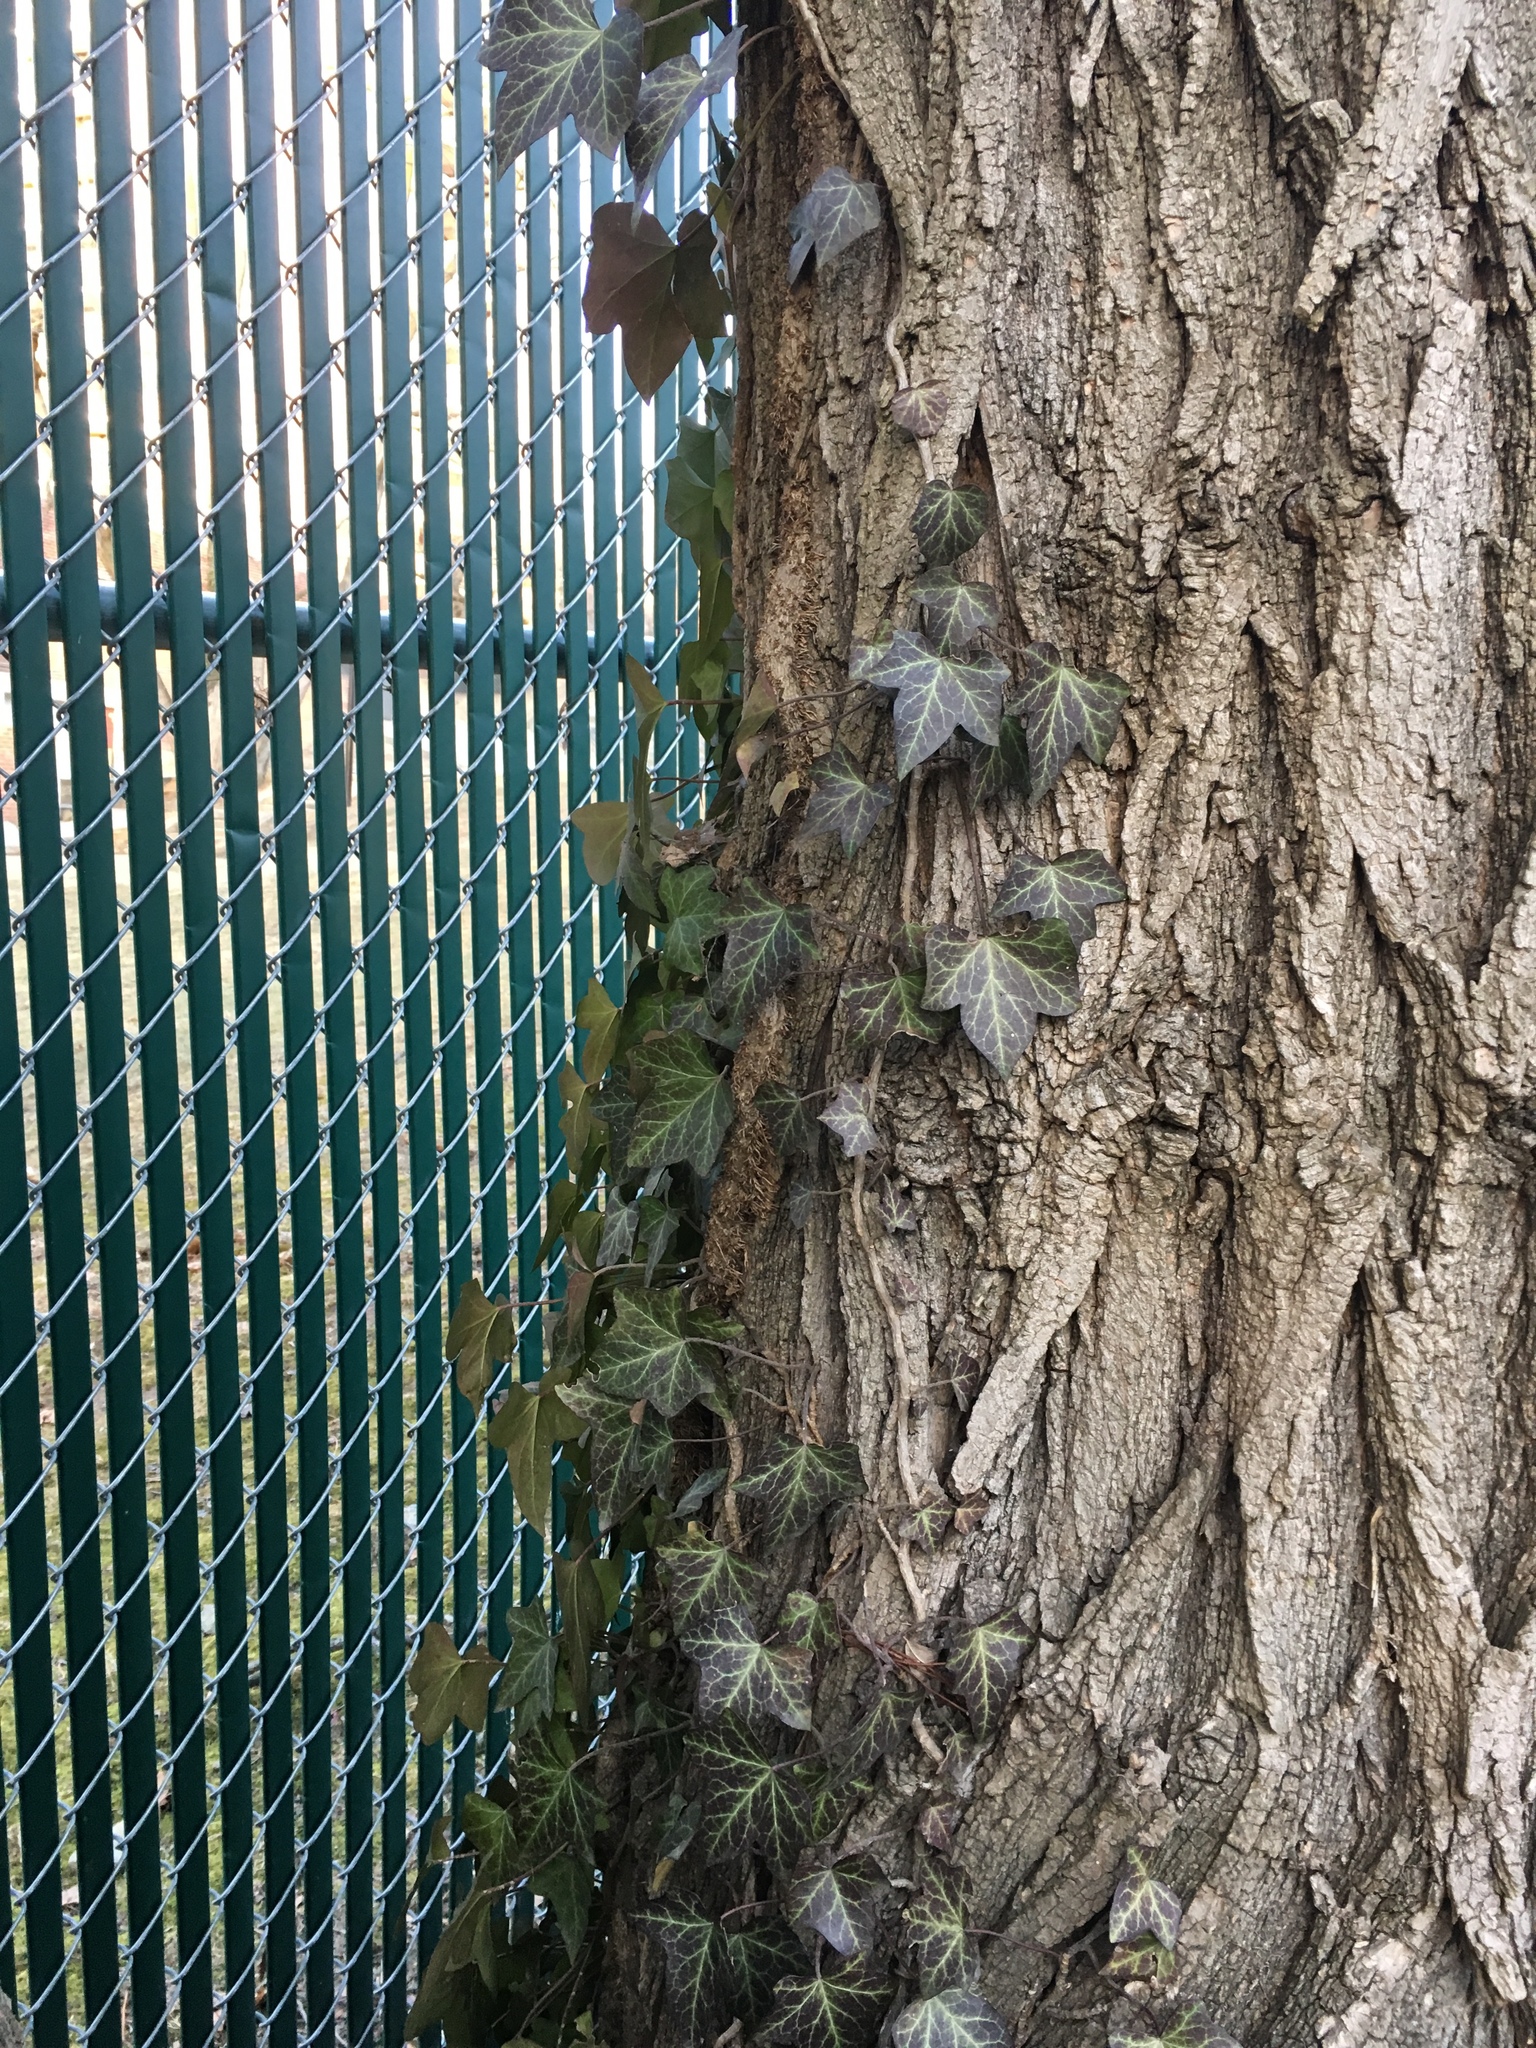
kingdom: Plantae
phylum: Tracheophyta
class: Magnoliopsida
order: Apiales
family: Araliaceae
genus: Hedera
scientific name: Hedera helix
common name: Ivy
